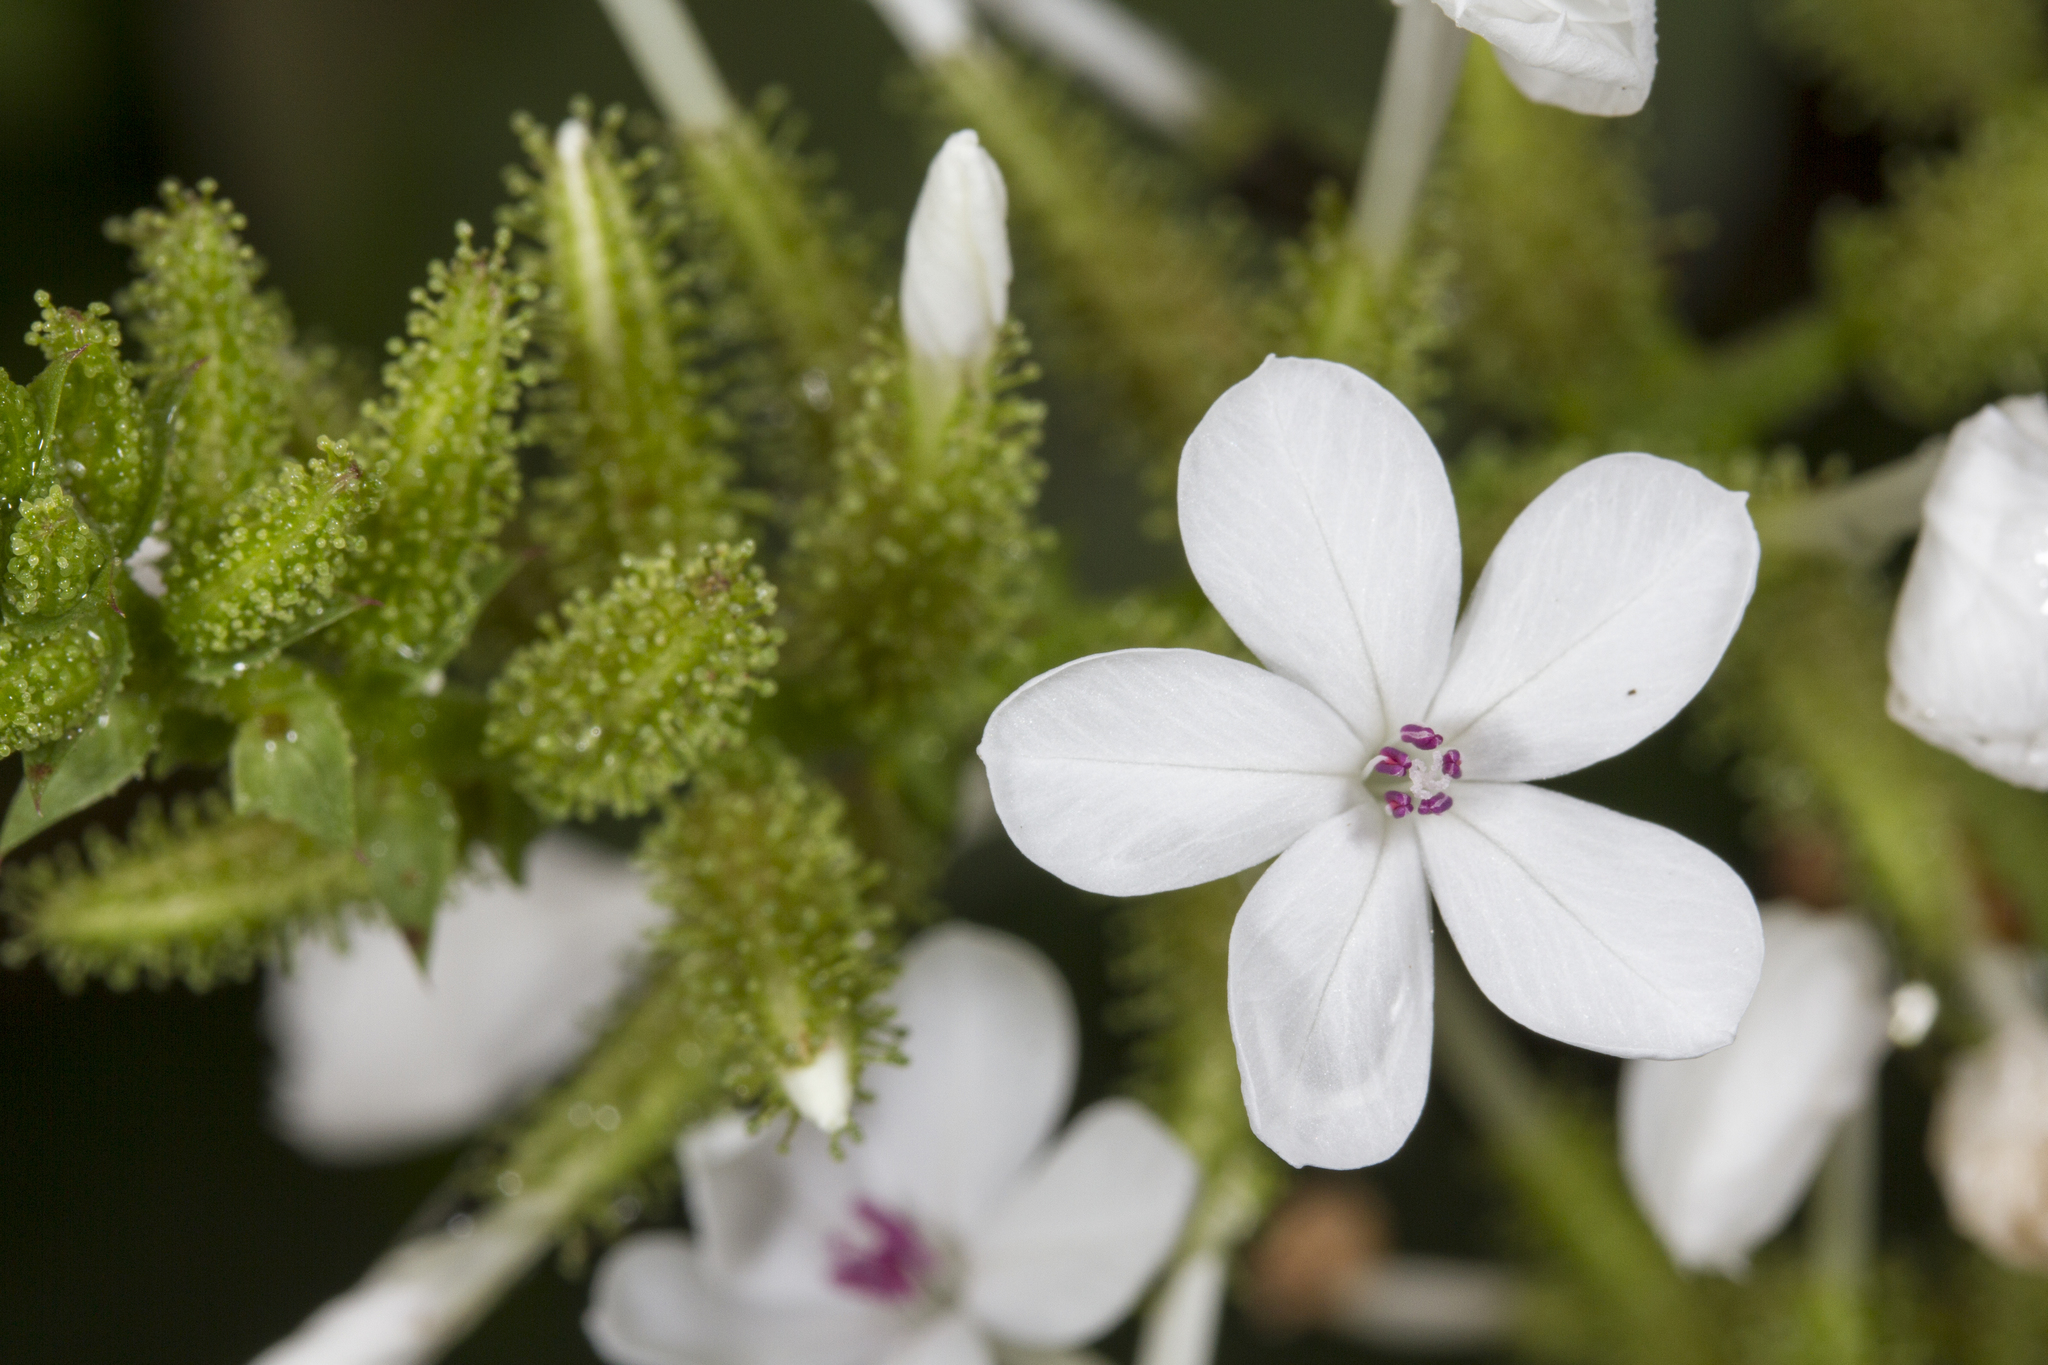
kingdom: Plantae
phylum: Tracheophyta
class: Magnoliopsida
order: Caryophyllales
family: Plumbaginaceae
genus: Plumbago
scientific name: Plumbago zeylanica
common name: Doctorbush
